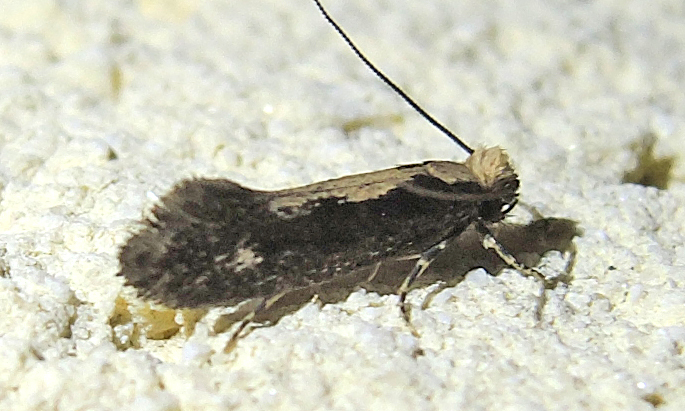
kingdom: Animalia
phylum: Arthropoda
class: Insecta
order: Lepidoptera
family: Tineidae
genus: Monopis
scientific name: Monopis crocicapitella
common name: Moth
